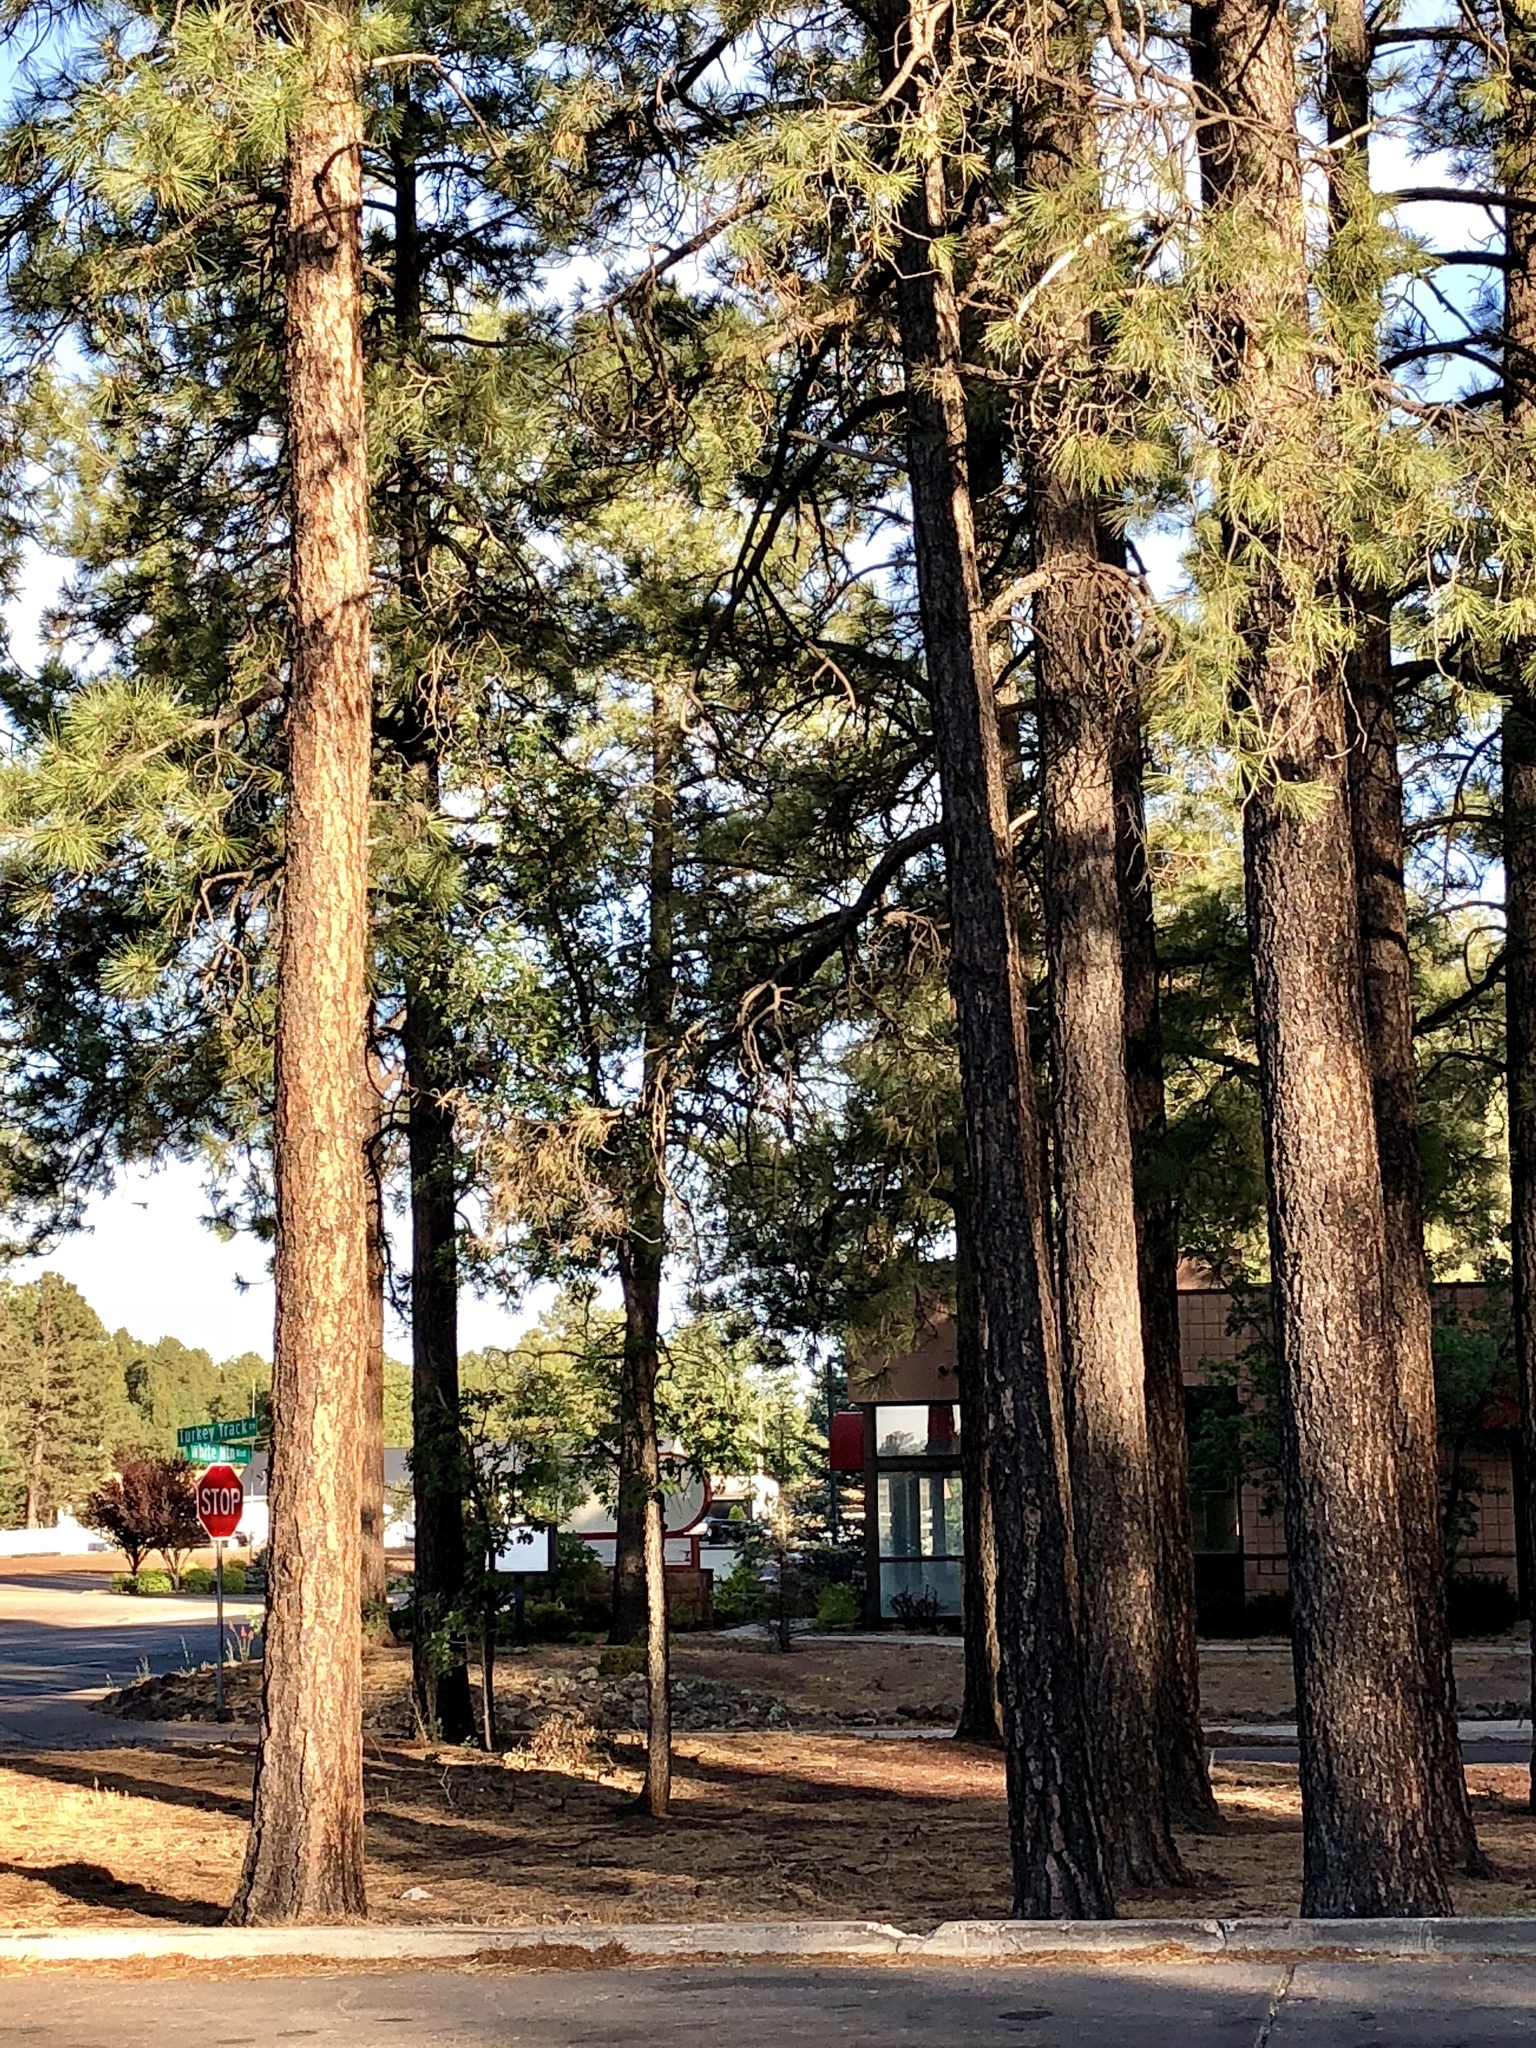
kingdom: Plantae
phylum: Tracheophyta
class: Pinopsida
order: Pinales
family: Pinaceae
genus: Pinus
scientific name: Pinus ponderosa
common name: Western yellow-pine
